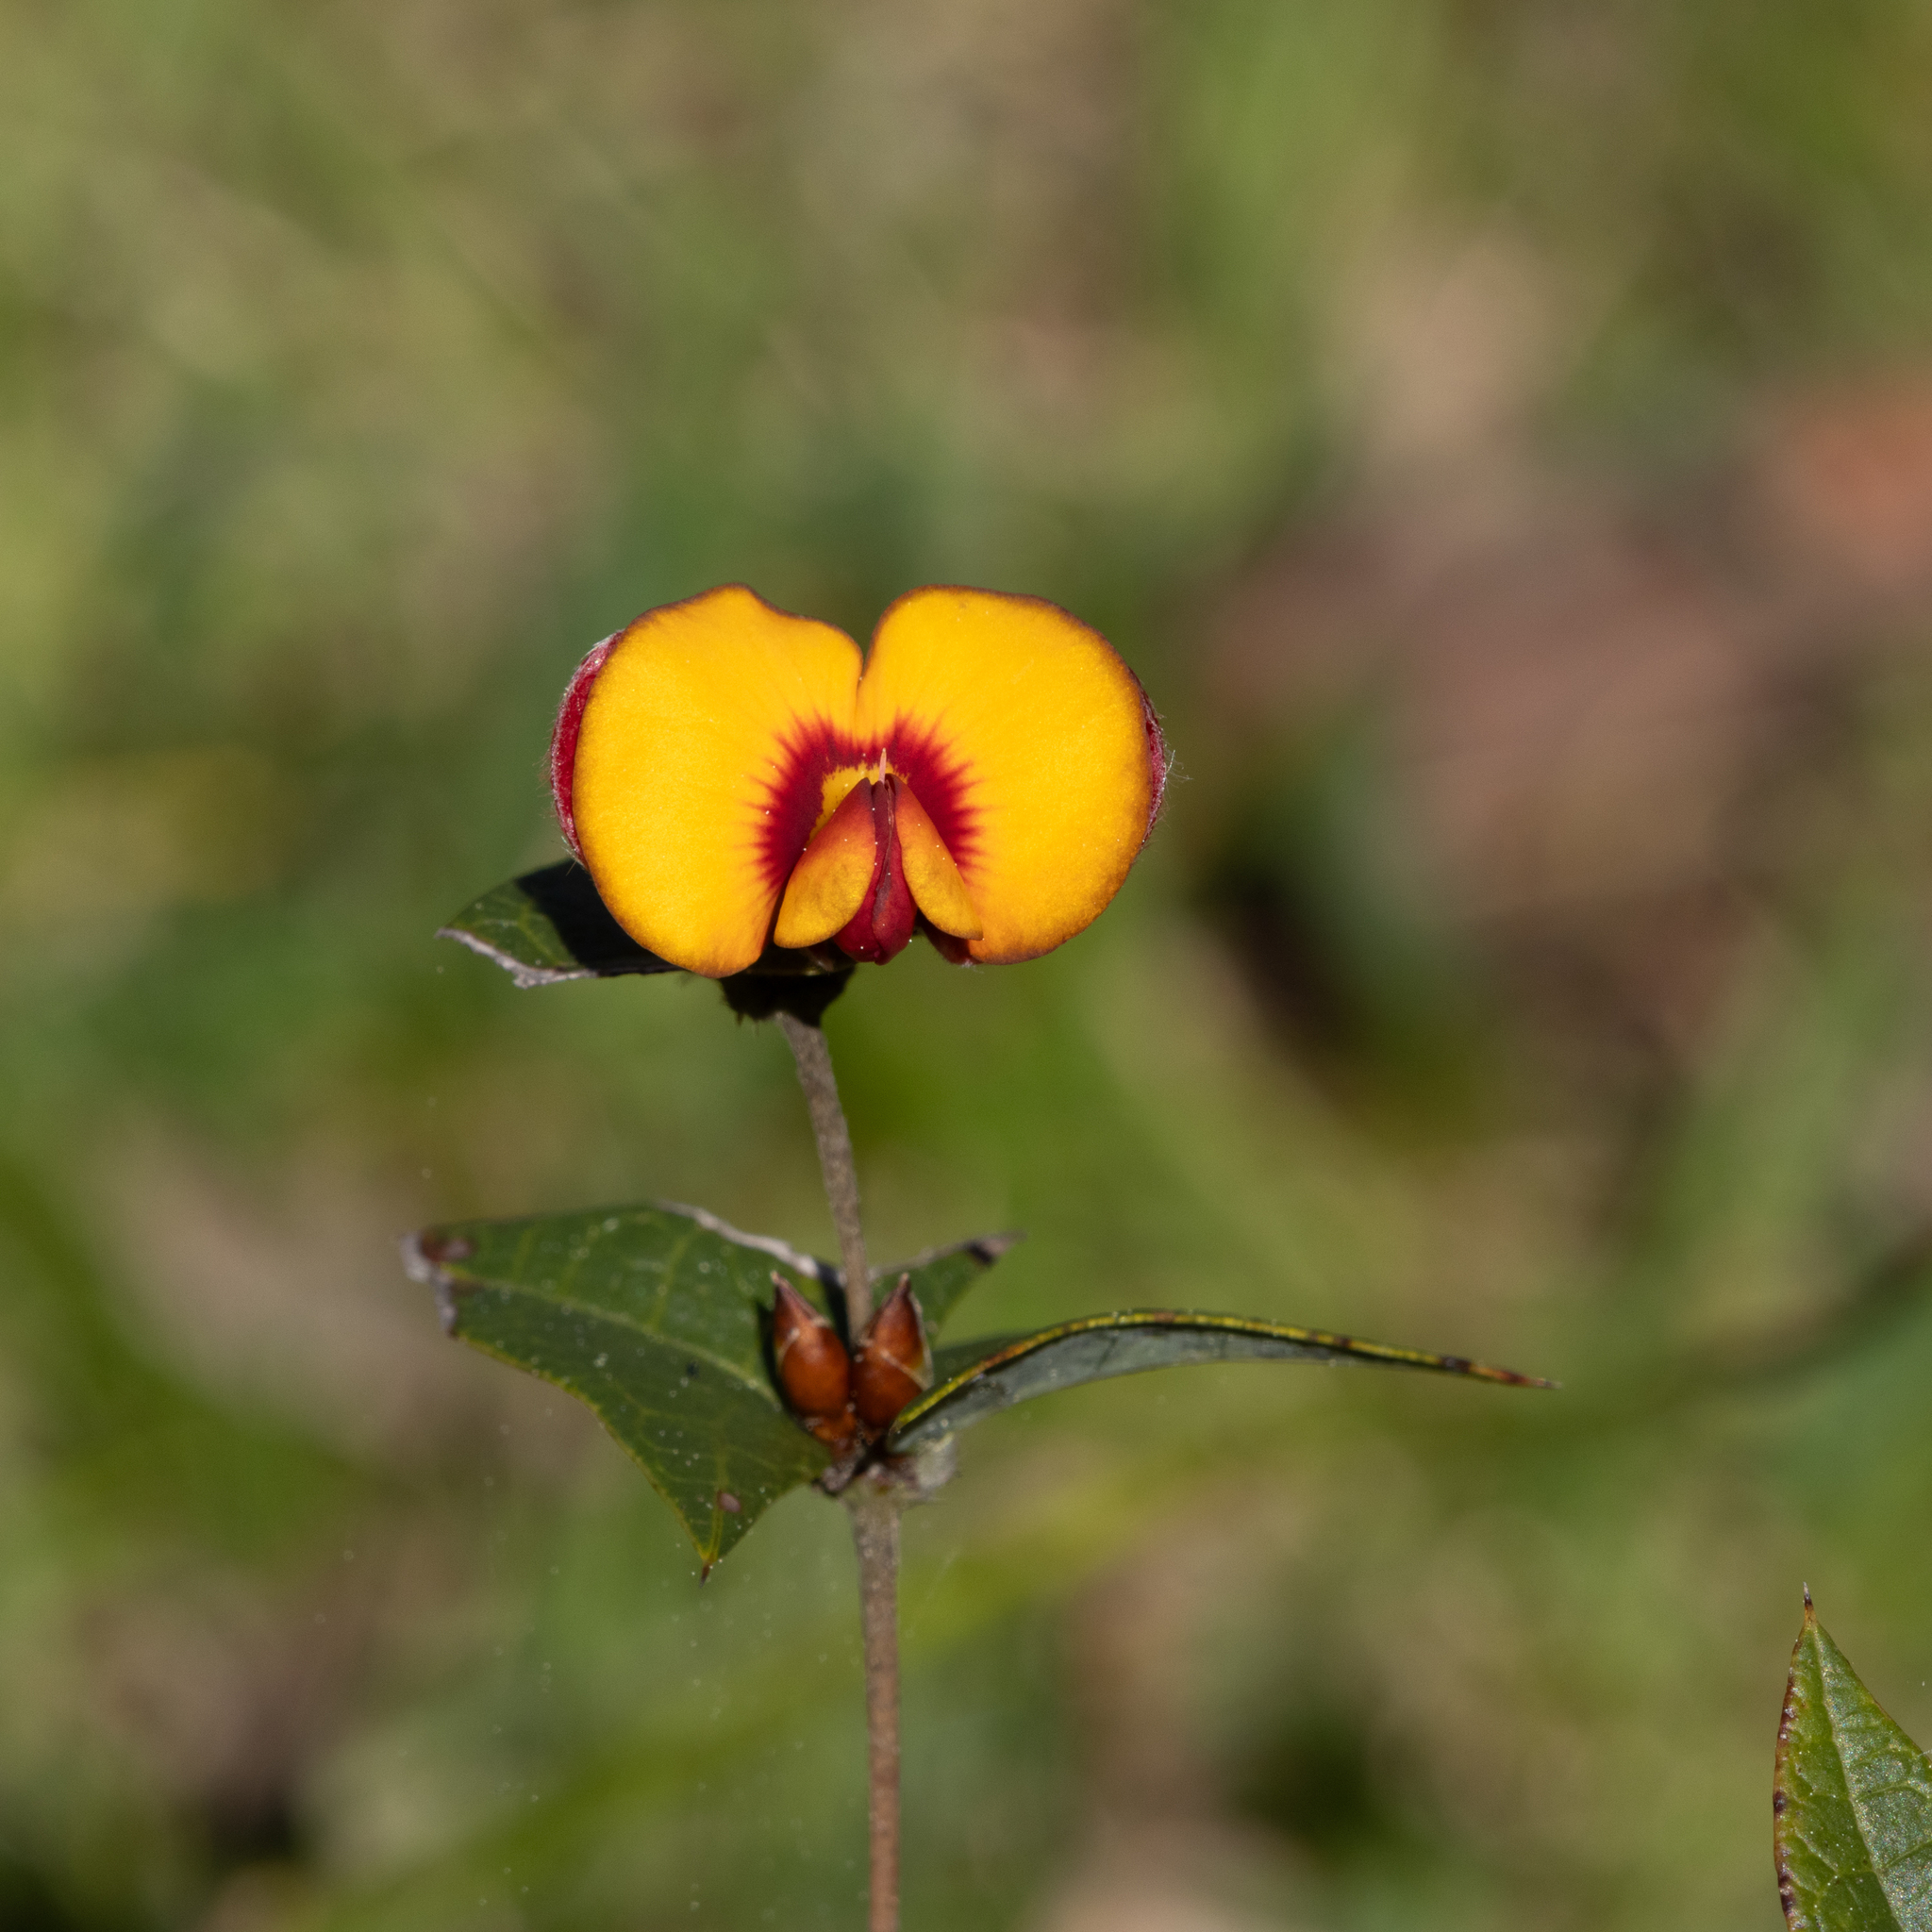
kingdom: Plantae
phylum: Tracheophyta
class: Magnoliopsida
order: Fabales
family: Fabaceae
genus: Platylobium
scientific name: Platylobium obtusangulum
